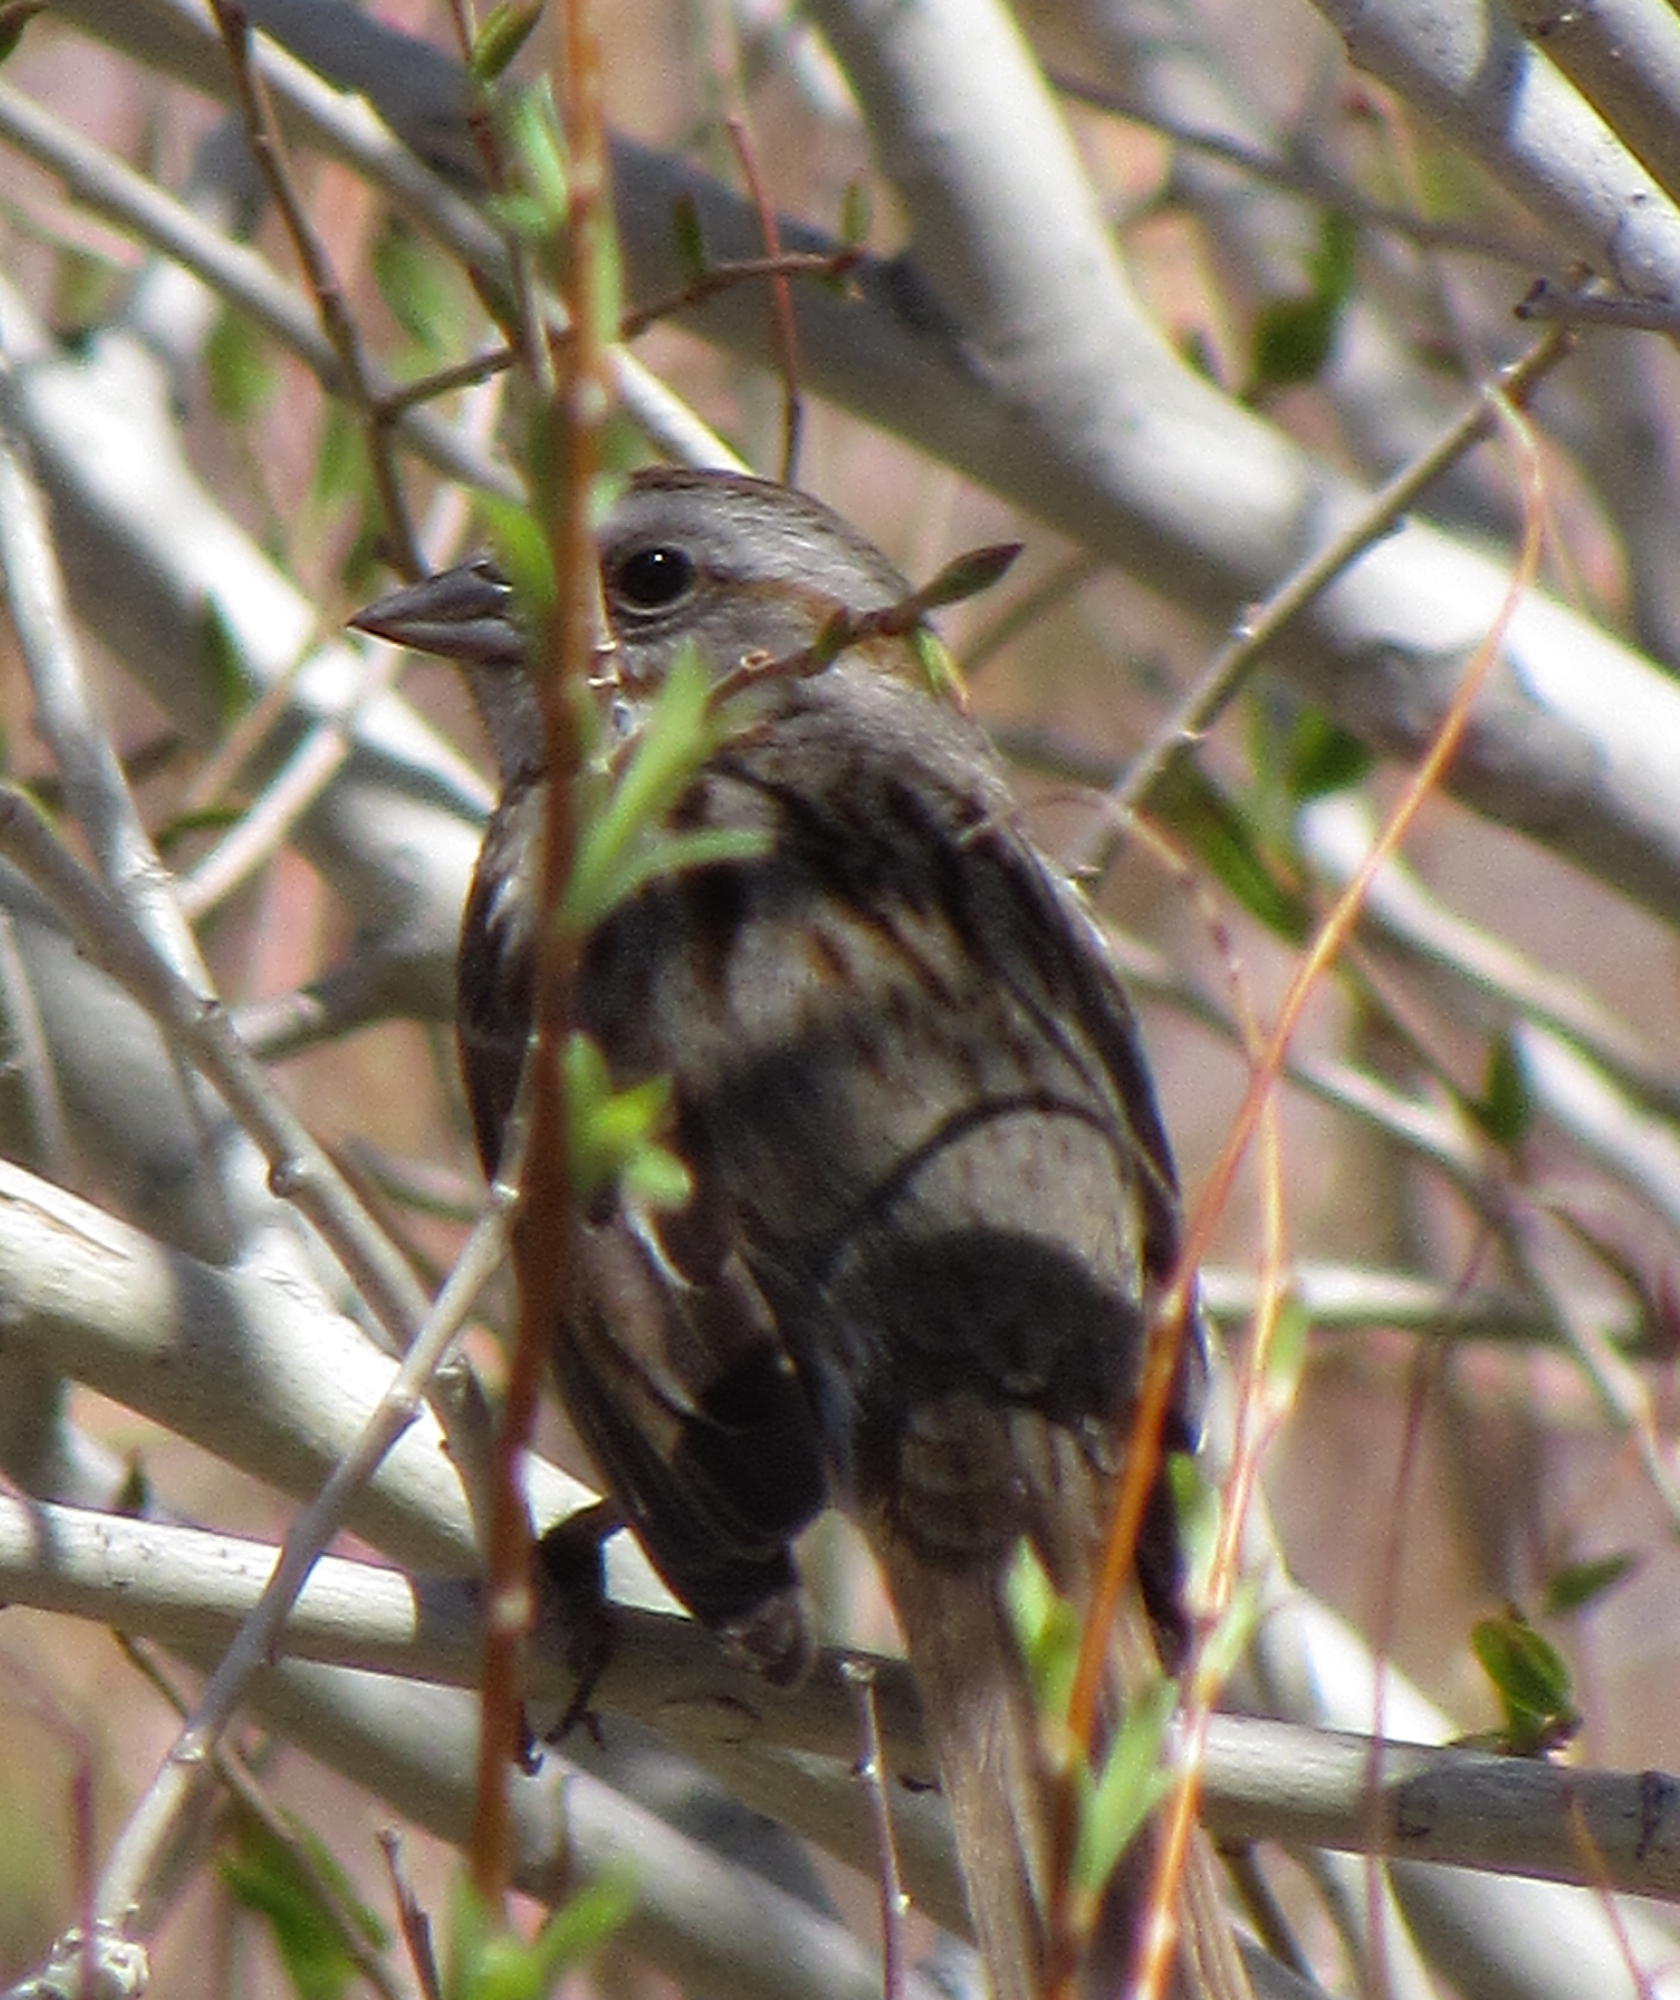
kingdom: Animalia
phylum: Chordata
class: Aves
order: Passeriformes
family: Passerellidae
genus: Melospiza
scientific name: Melospiza melodia
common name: Song sparrow
